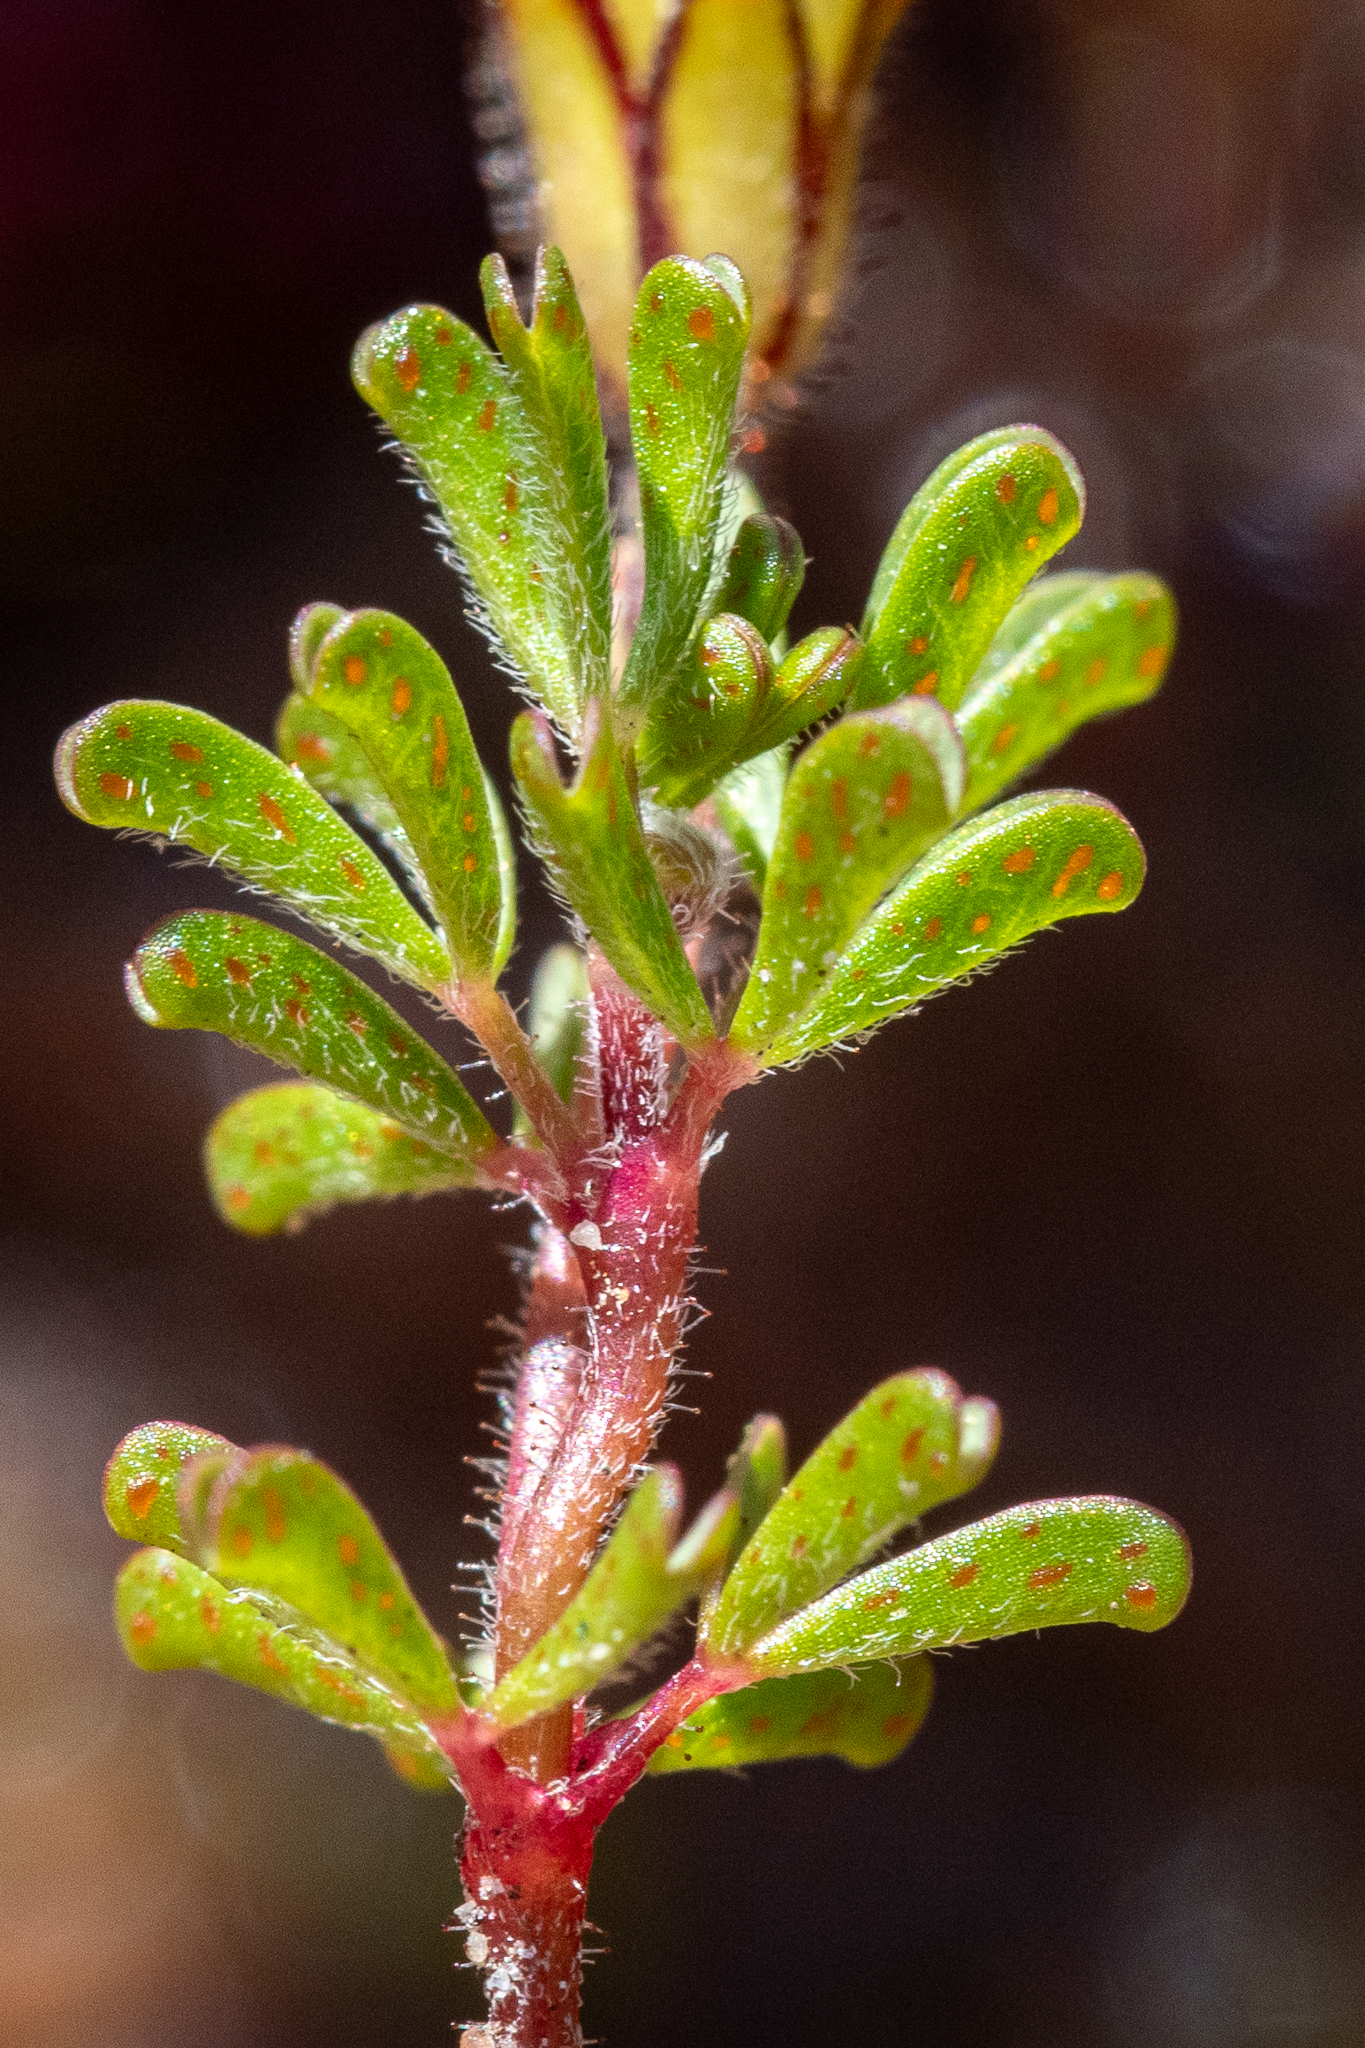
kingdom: Plantae
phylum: Tracheophyta
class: Magnoliopsida
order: Oxalidales
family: Oxalidaceae
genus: Oxalis
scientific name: Oxalis multicaulis
